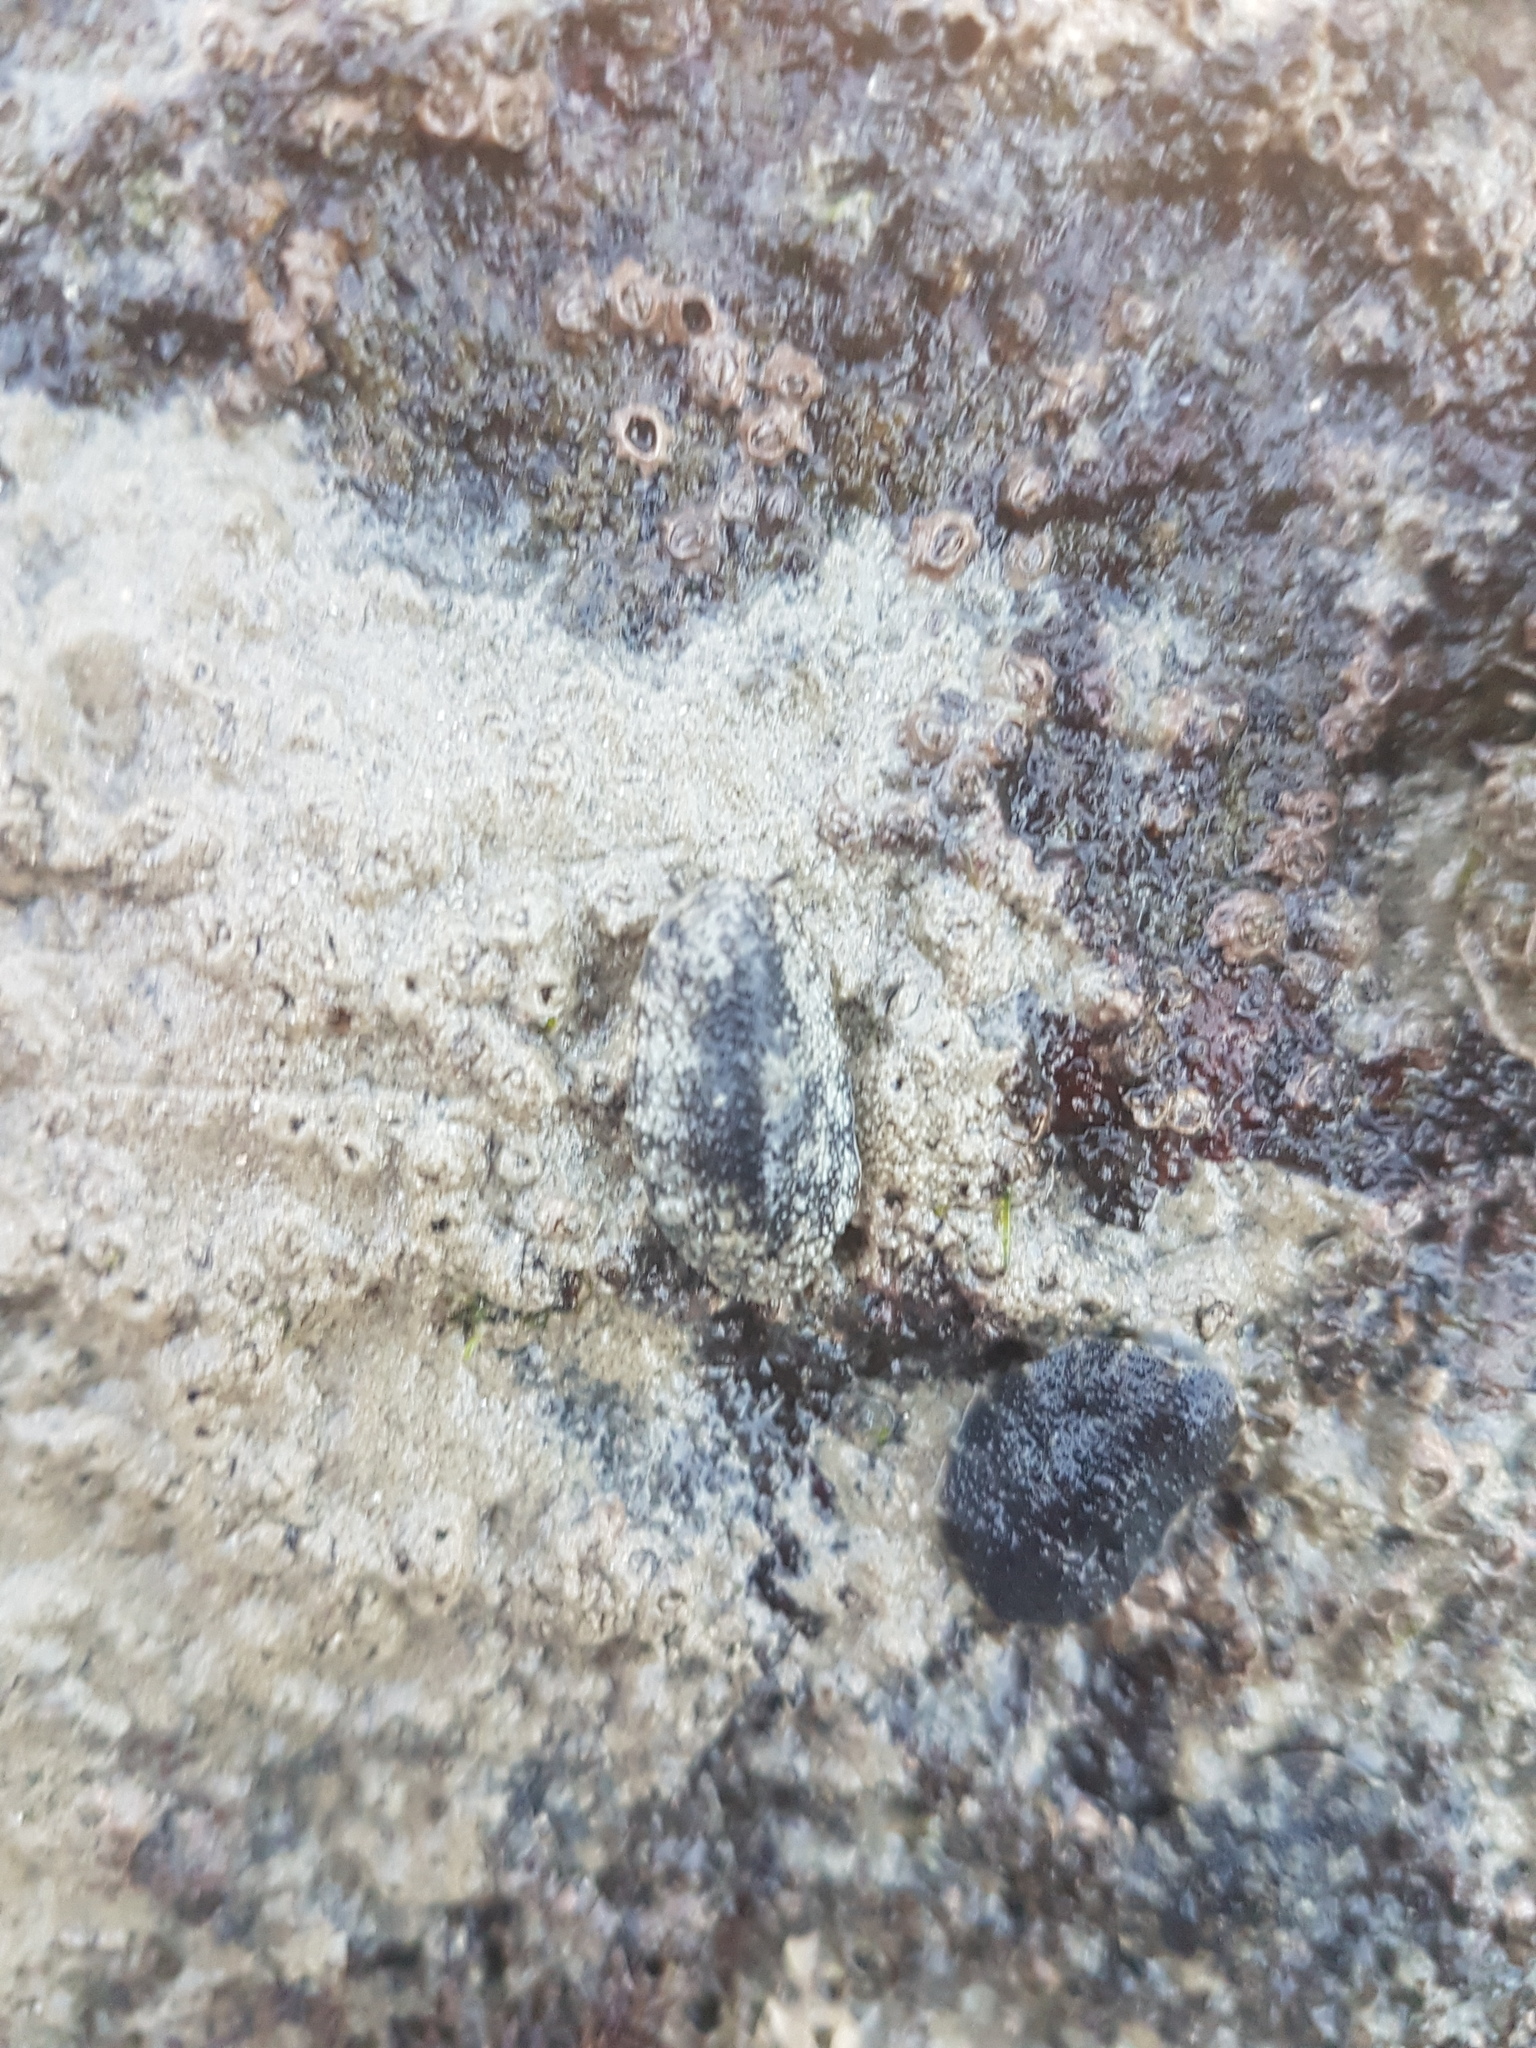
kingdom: Animalia
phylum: Mollusca
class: Gastropoda
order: Systellommatophora
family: Onchidiidae
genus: Onchidella
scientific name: Onchidella nigricans
